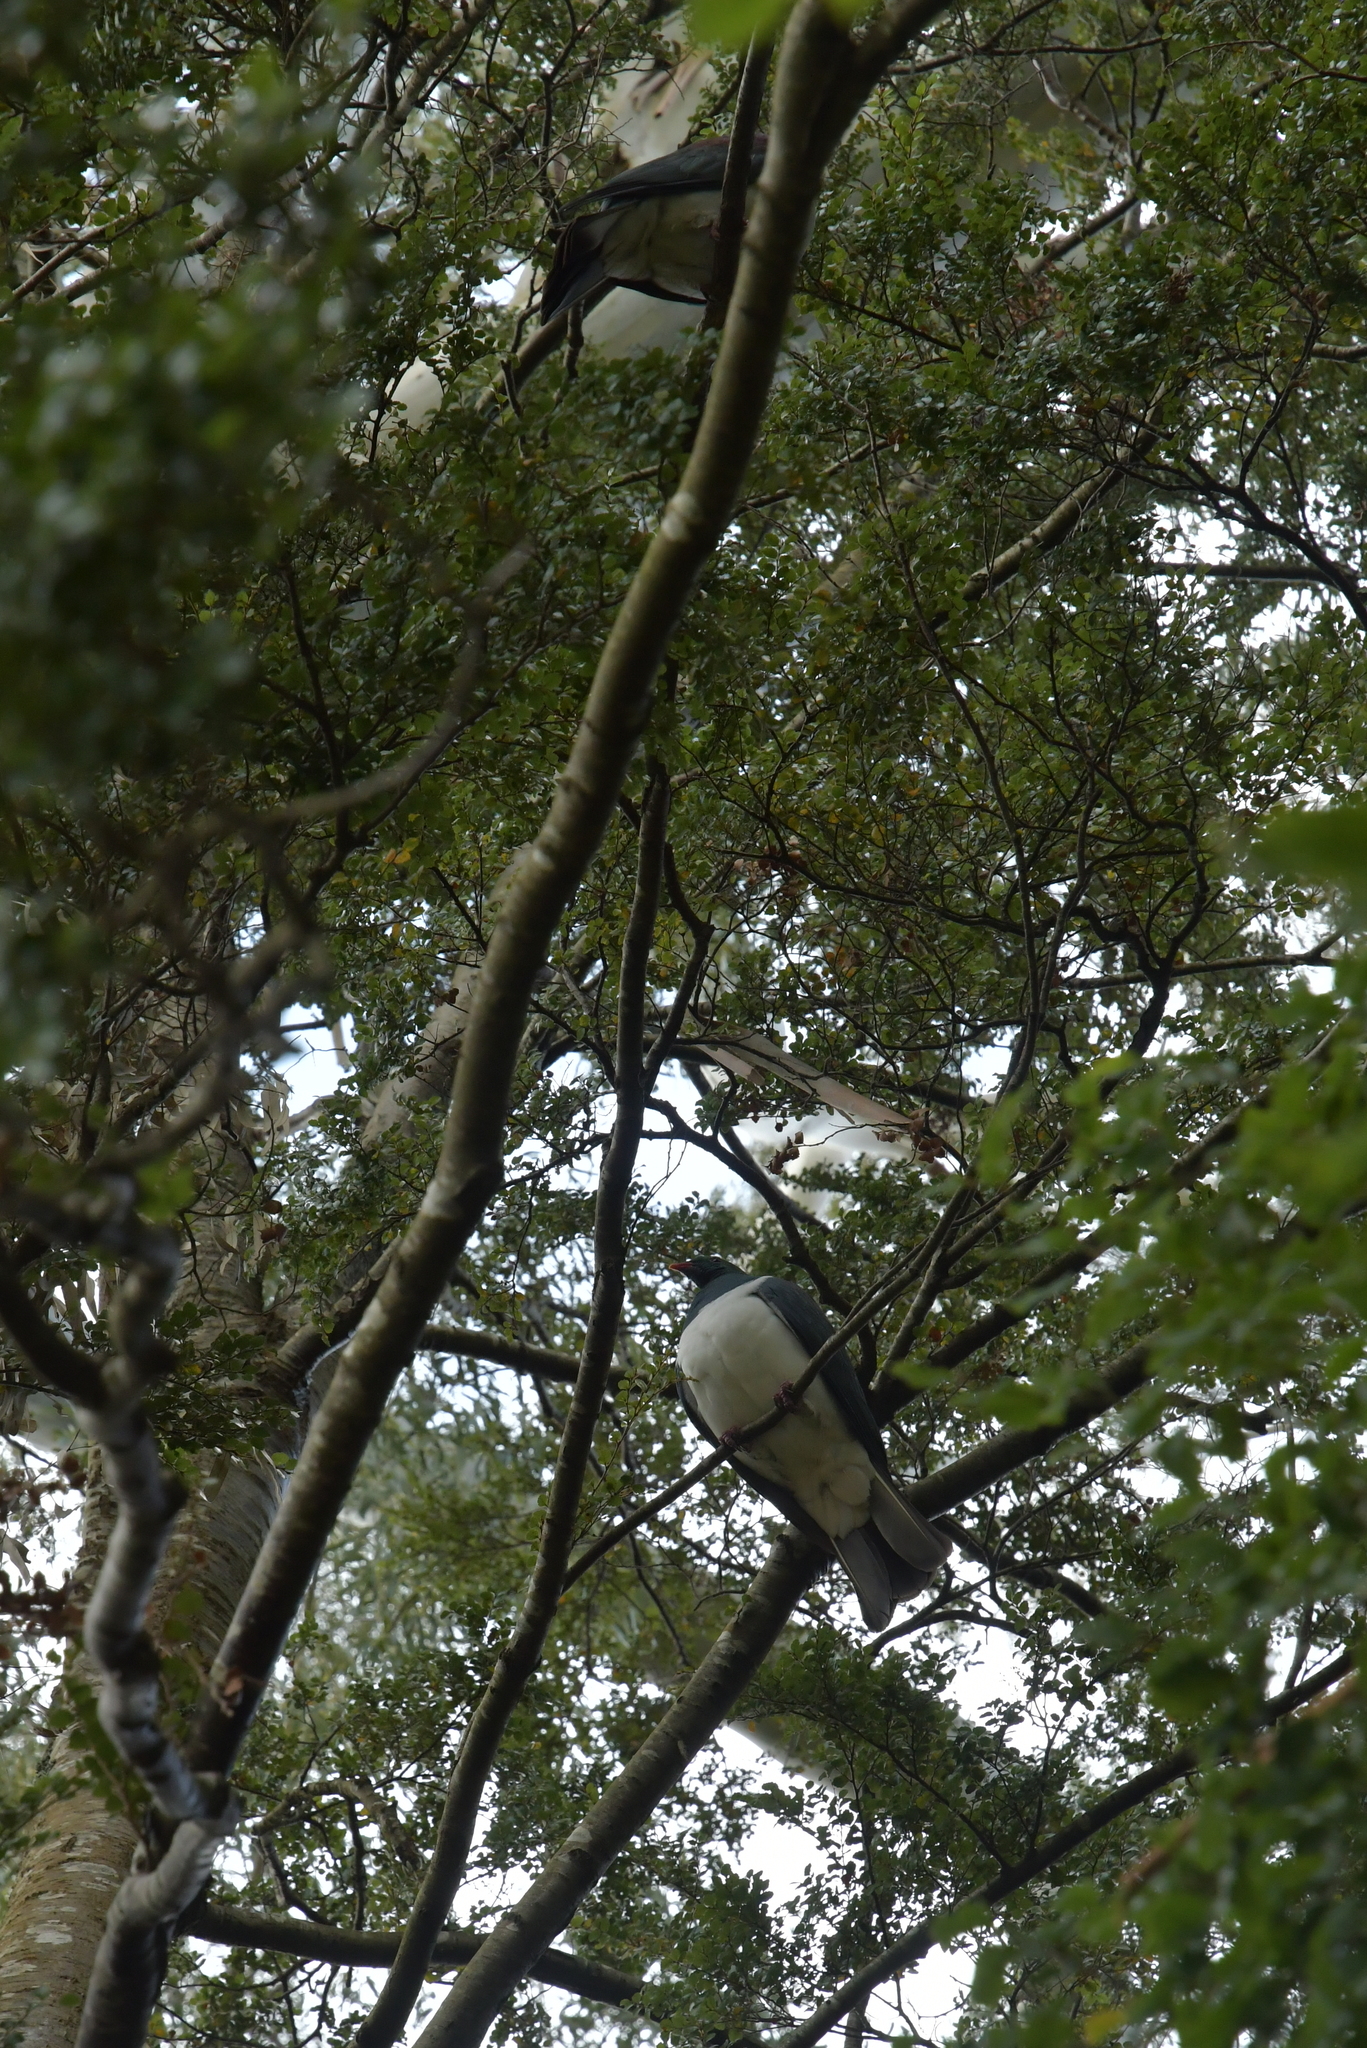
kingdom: Animalia
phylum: Chordata
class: Aves
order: Columbiformes
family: Columbidae
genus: Hemiphaga
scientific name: Hemiphaga novaeseelandiae
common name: New zealand pigeon
